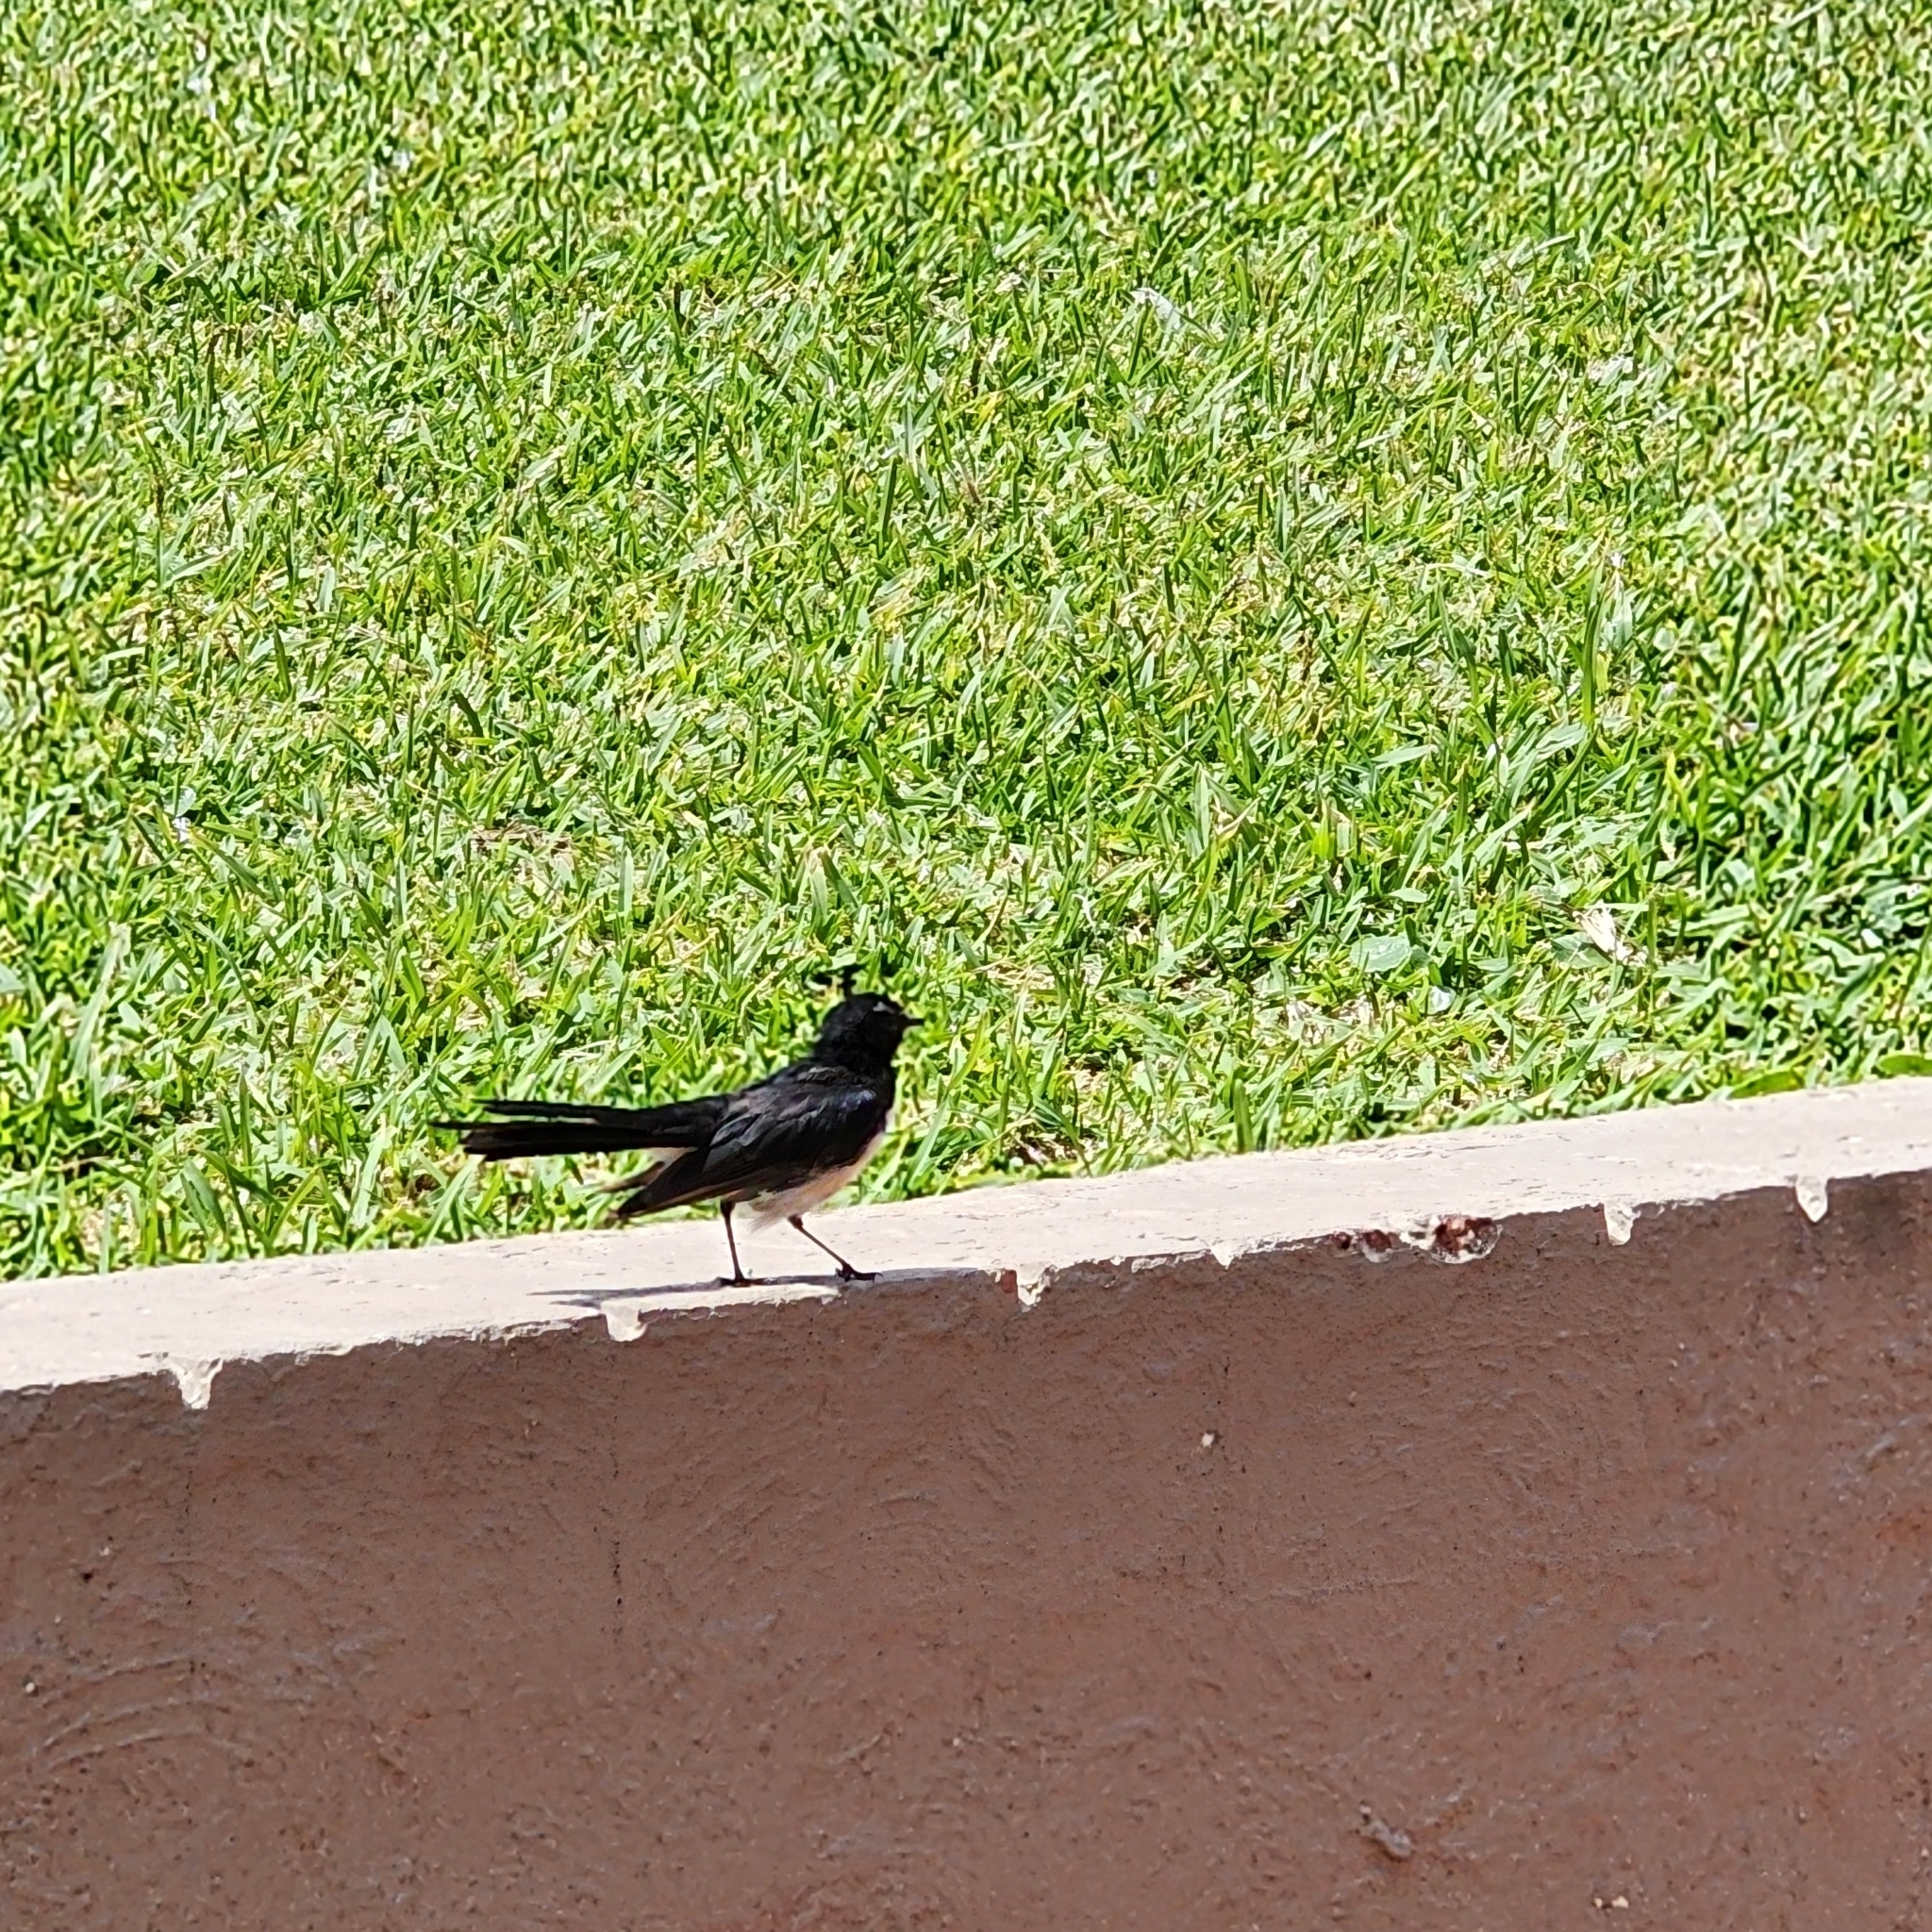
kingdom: Animalia
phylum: Chordata
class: Aves
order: Passeriformes
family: Rhipiduridae
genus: Rhipidura
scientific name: Rhipidura leucophrys
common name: Willie wagtail
